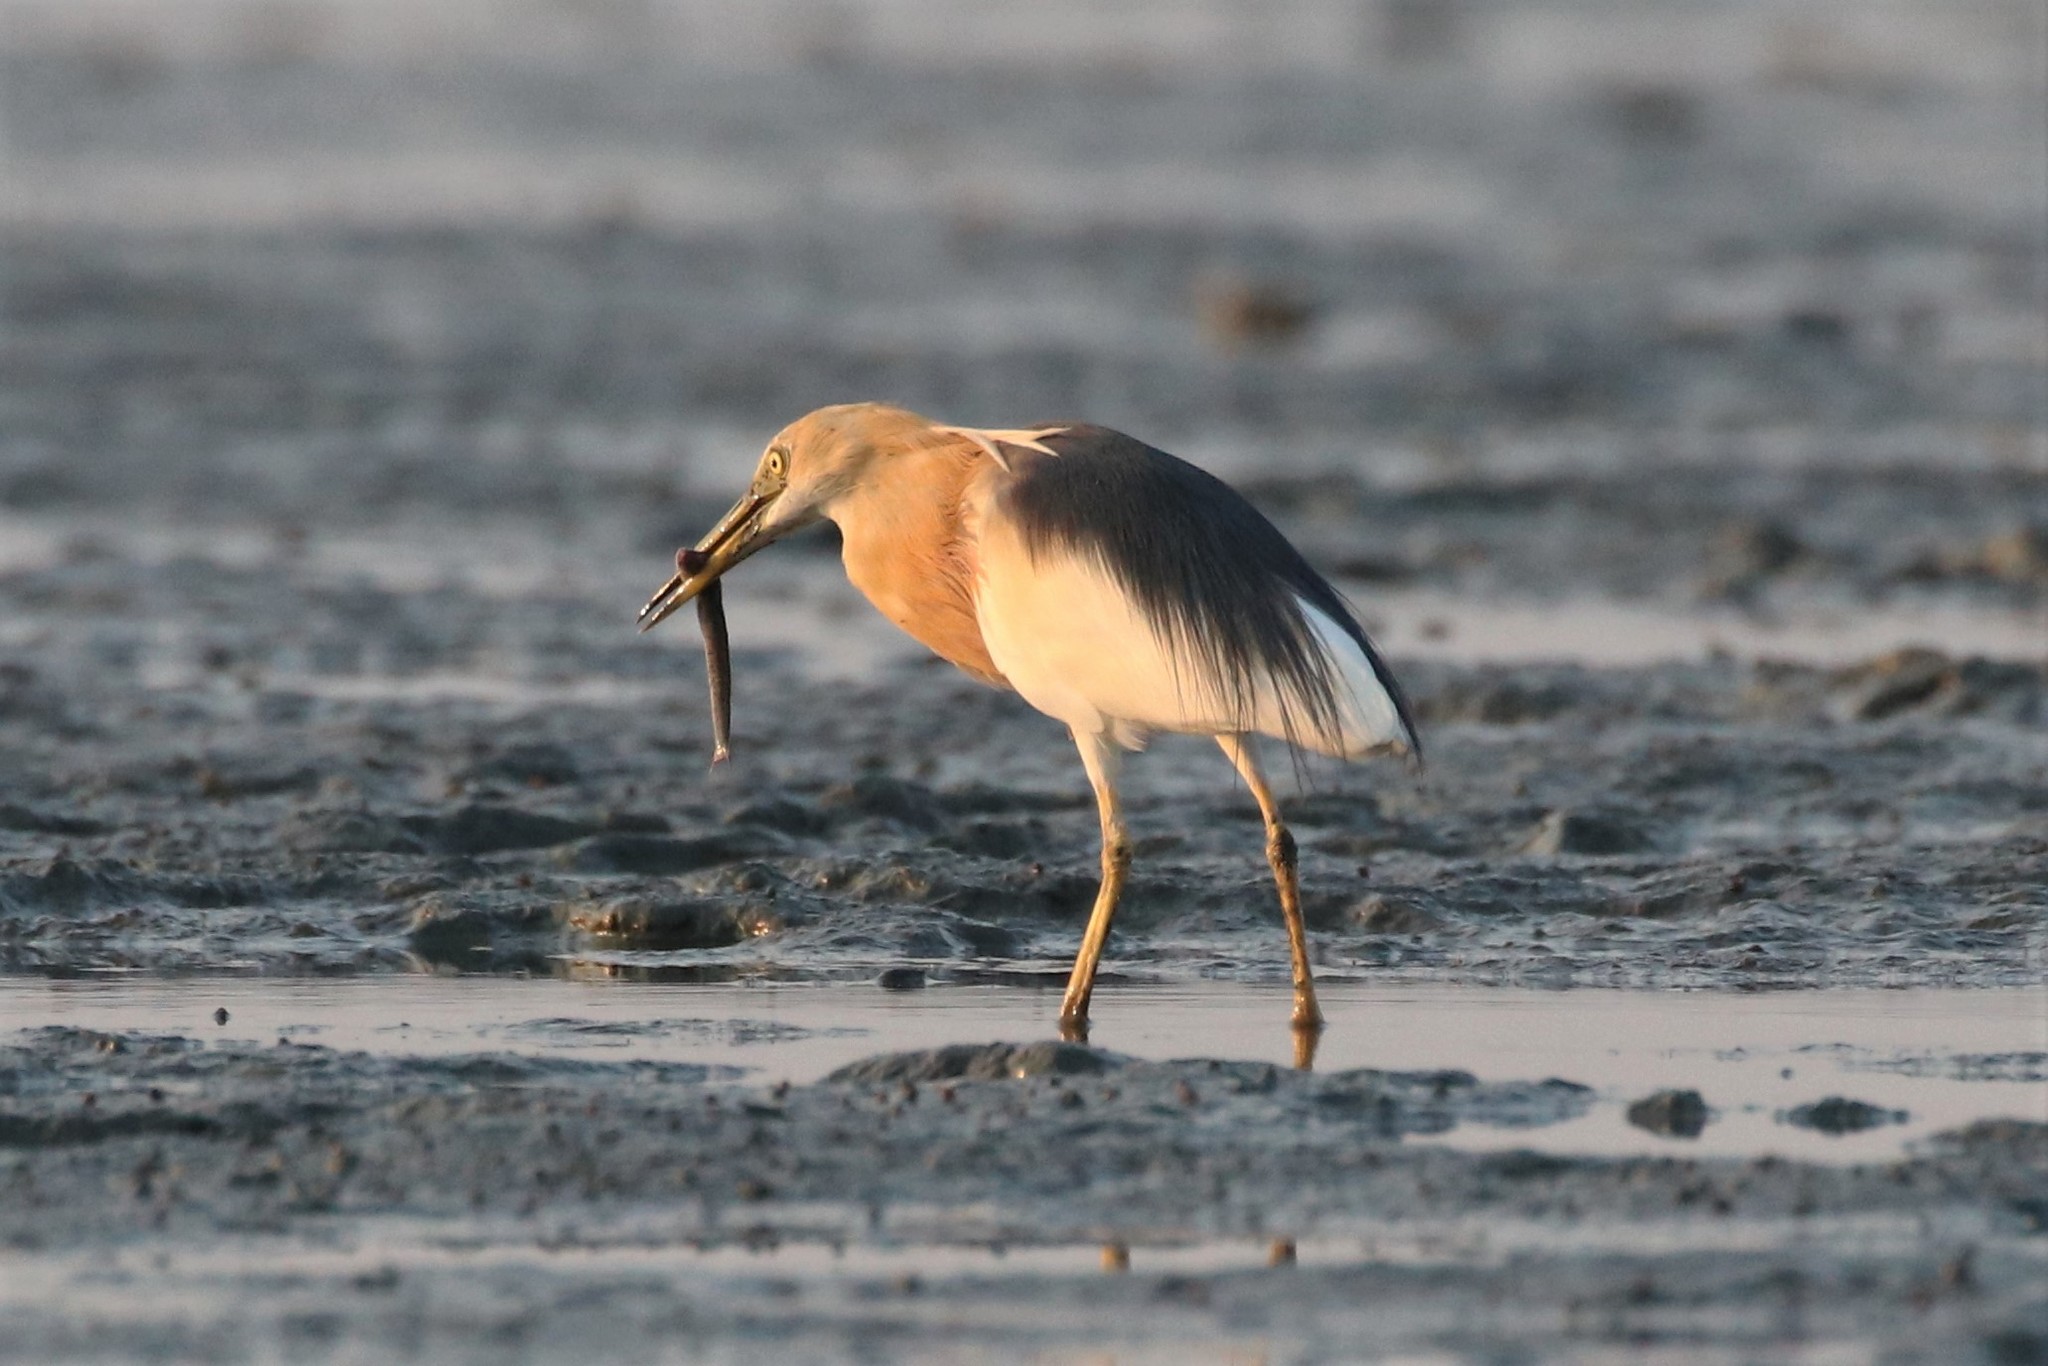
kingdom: Animalia
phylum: Chordata
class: Aves
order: Pelecaniformes
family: Ardeidae
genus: Ardeola
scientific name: Ardeola speciosa
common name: Javan pond heron
